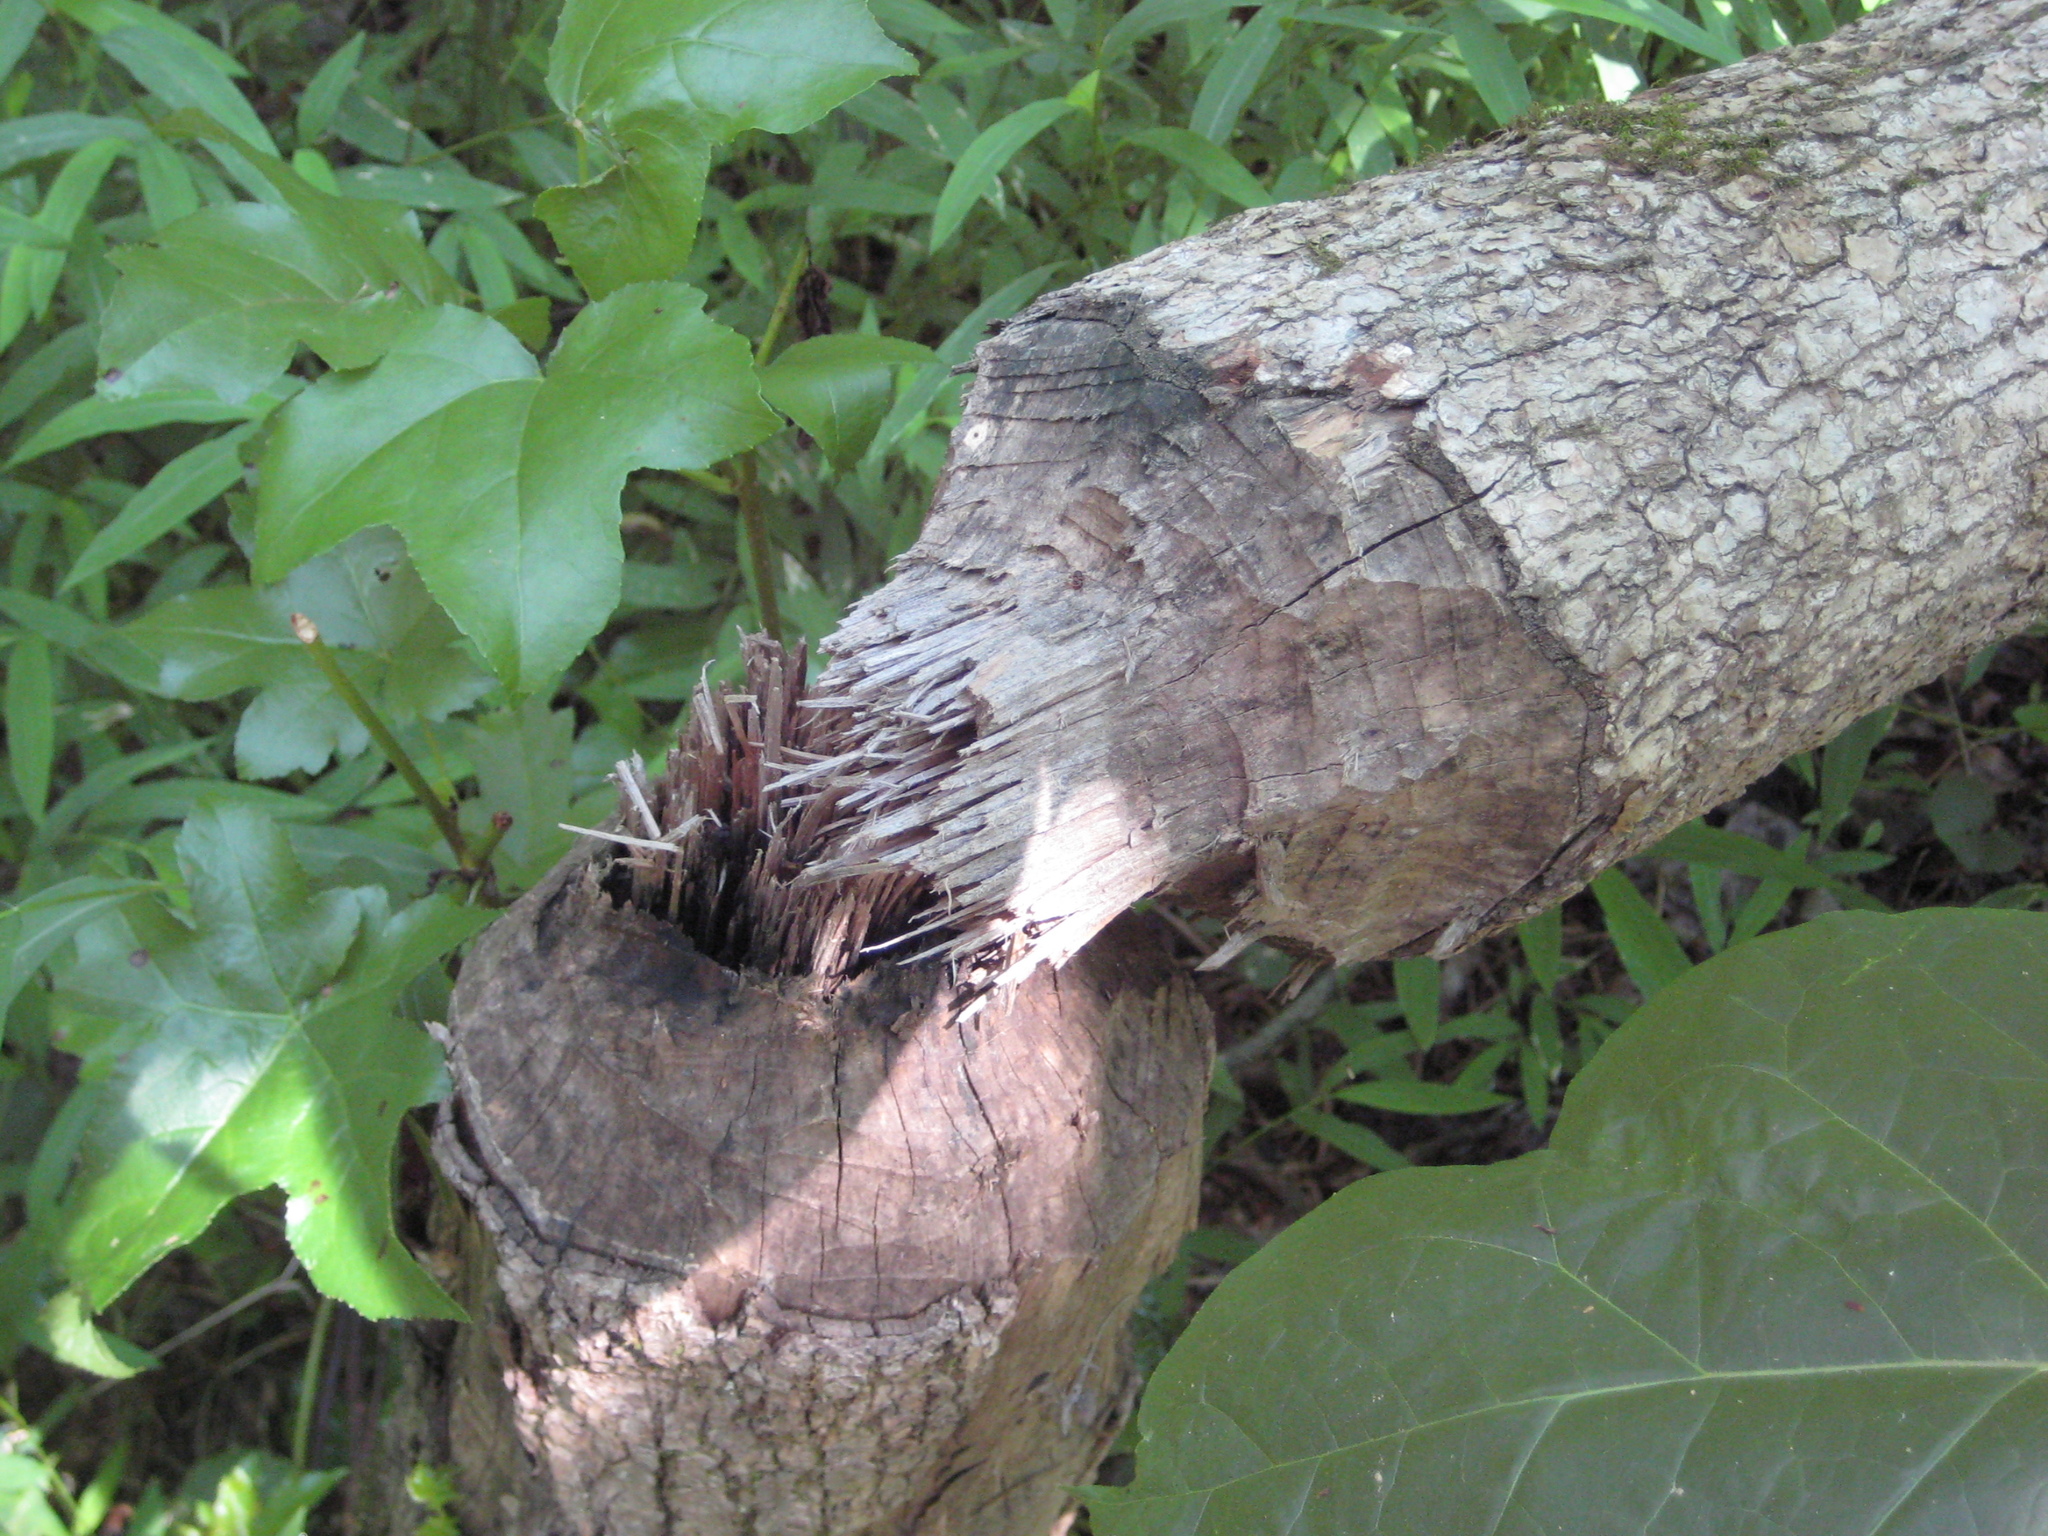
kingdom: Animalia
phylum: Chordata
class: Mammalia
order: Rodentia
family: Castoridae
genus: Castor
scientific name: Castor canadensis
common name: American beaver
